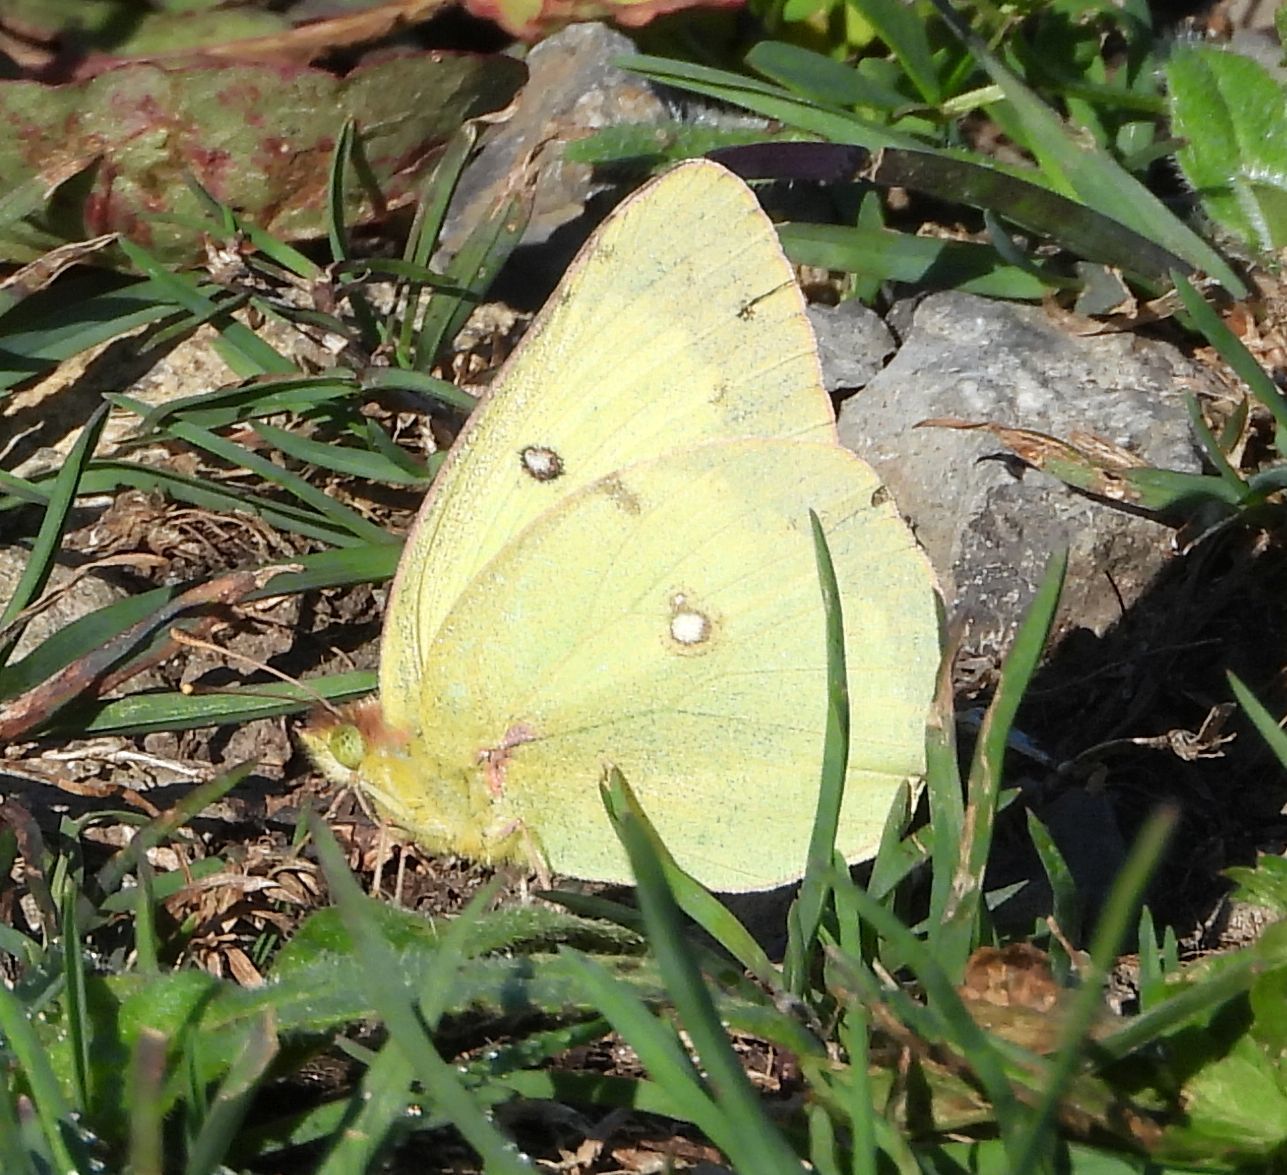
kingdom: Animalia
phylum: Arthropoda
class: Insecta
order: Lepidoptera
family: Pieridae
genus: Colias
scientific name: Colias philodice
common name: Clouded sulphur
